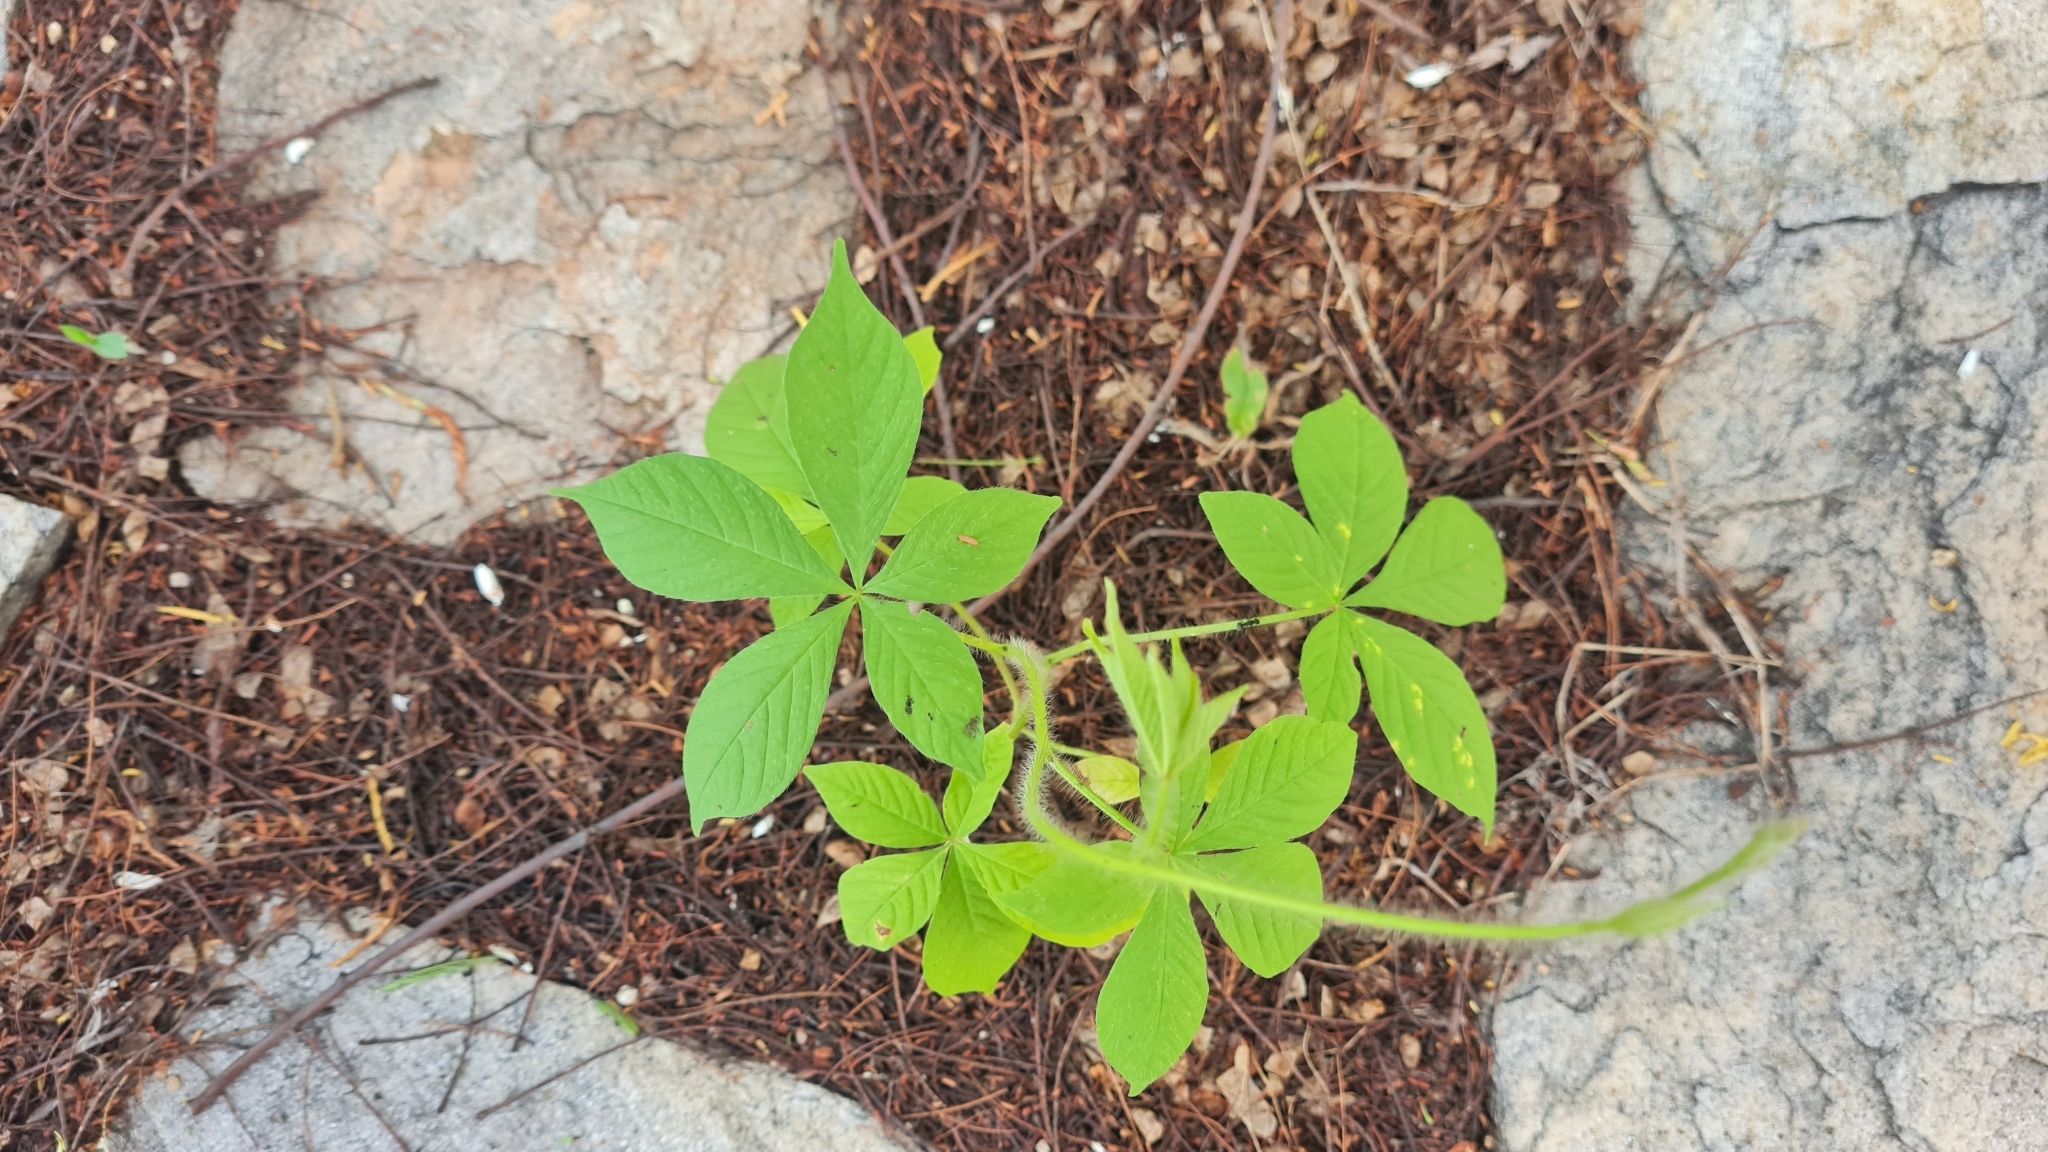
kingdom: Plantae
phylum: Tracheophyta
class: Magnoliopsida
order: Solanales
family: Convolvulaceae
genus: Distimake
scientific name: Distimake aegyptius
